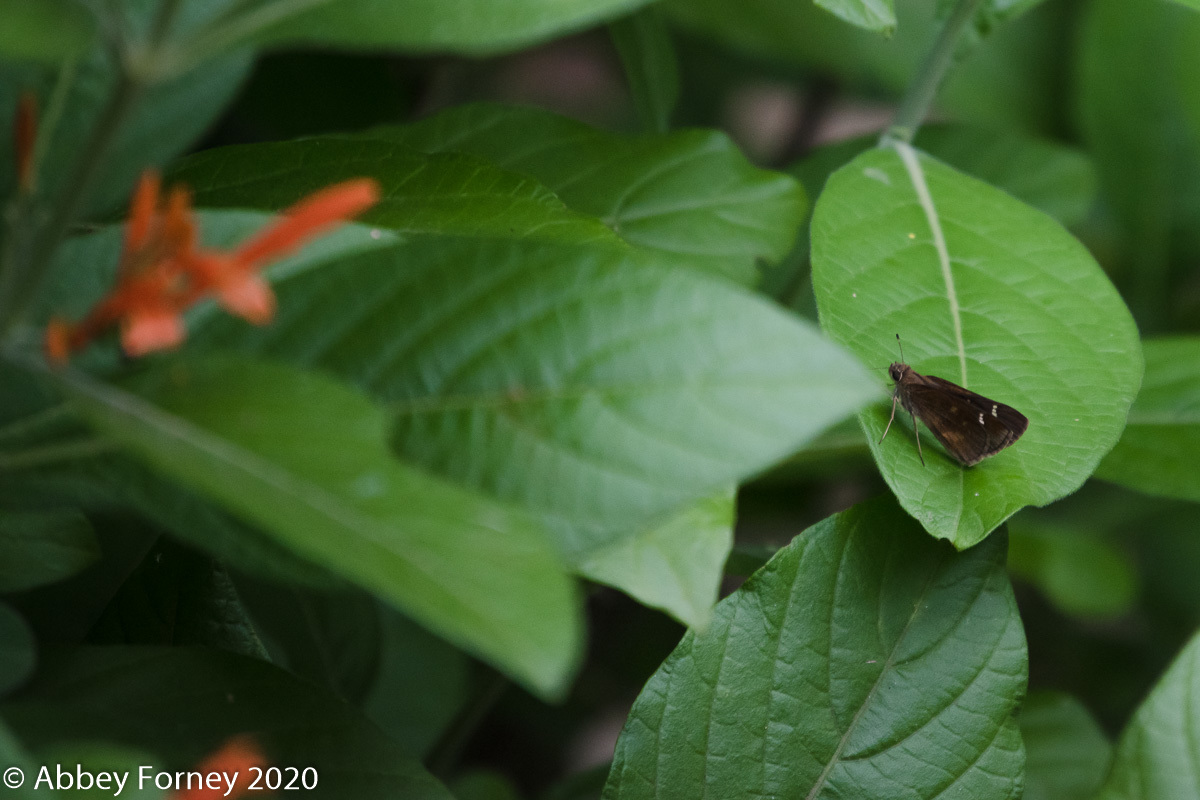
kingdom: Animalia
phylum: Arthropoda
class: Insecta
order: Lepidoptera
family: Hesperiidae
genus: Lerema
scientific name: Lerema accius
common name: Clouded skipper
